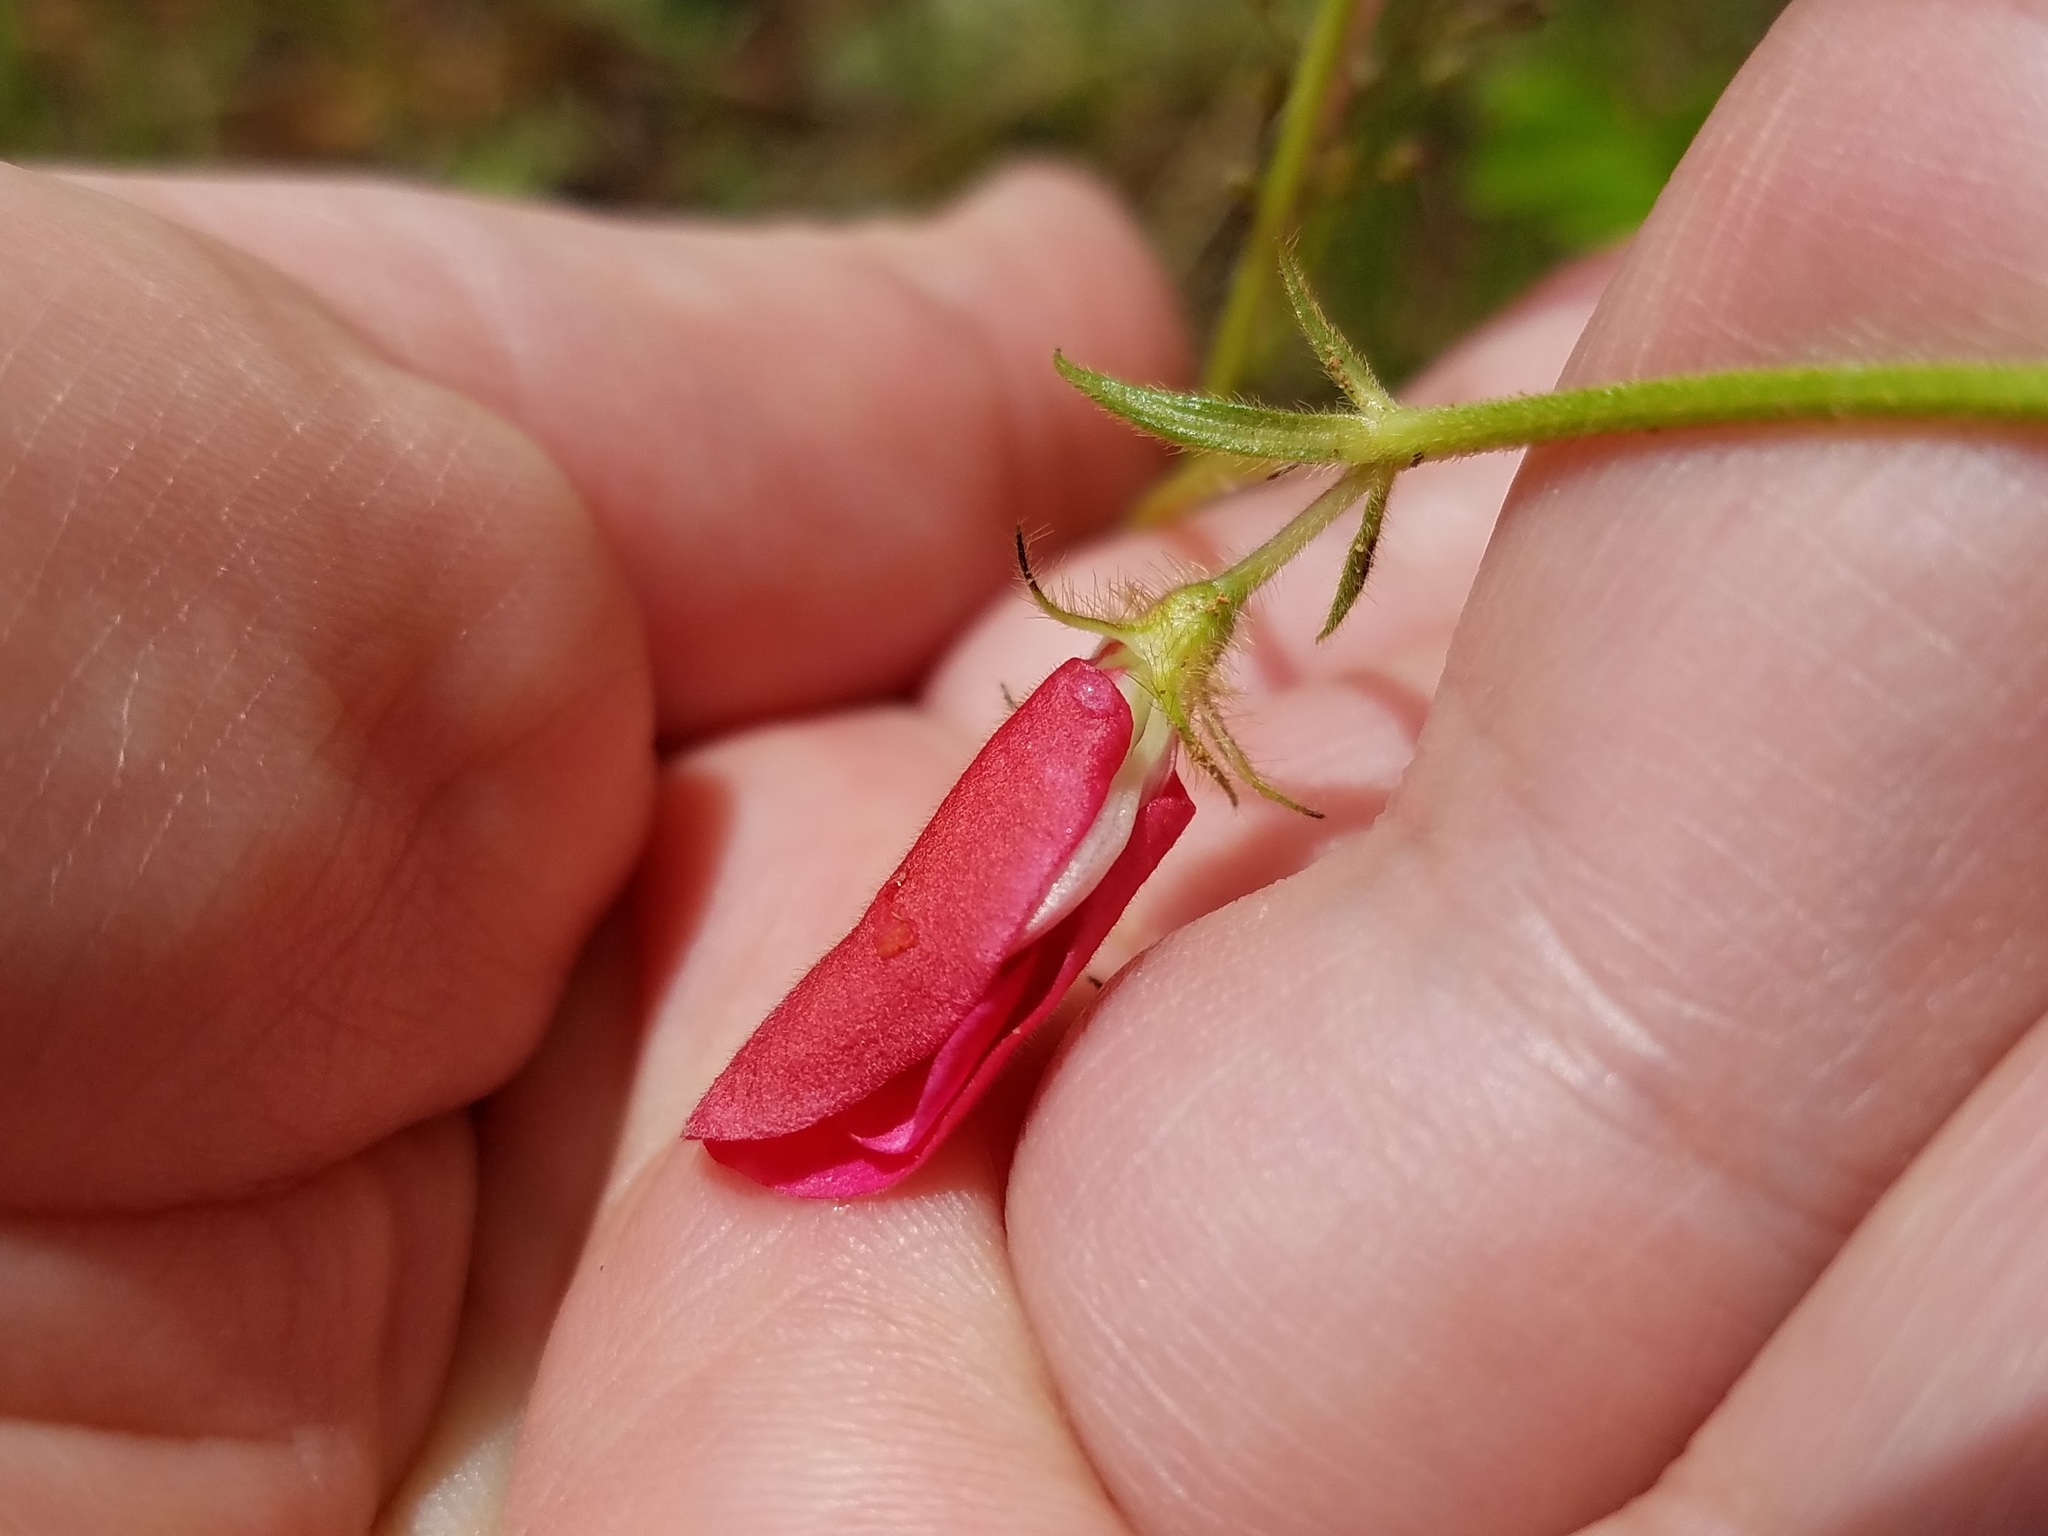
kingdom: Plantae
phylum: Tracheophyta
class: Magnoliopsida
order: Fabales
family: Fabaceae
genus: Tephrosia
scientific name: Tephrosia spicata
